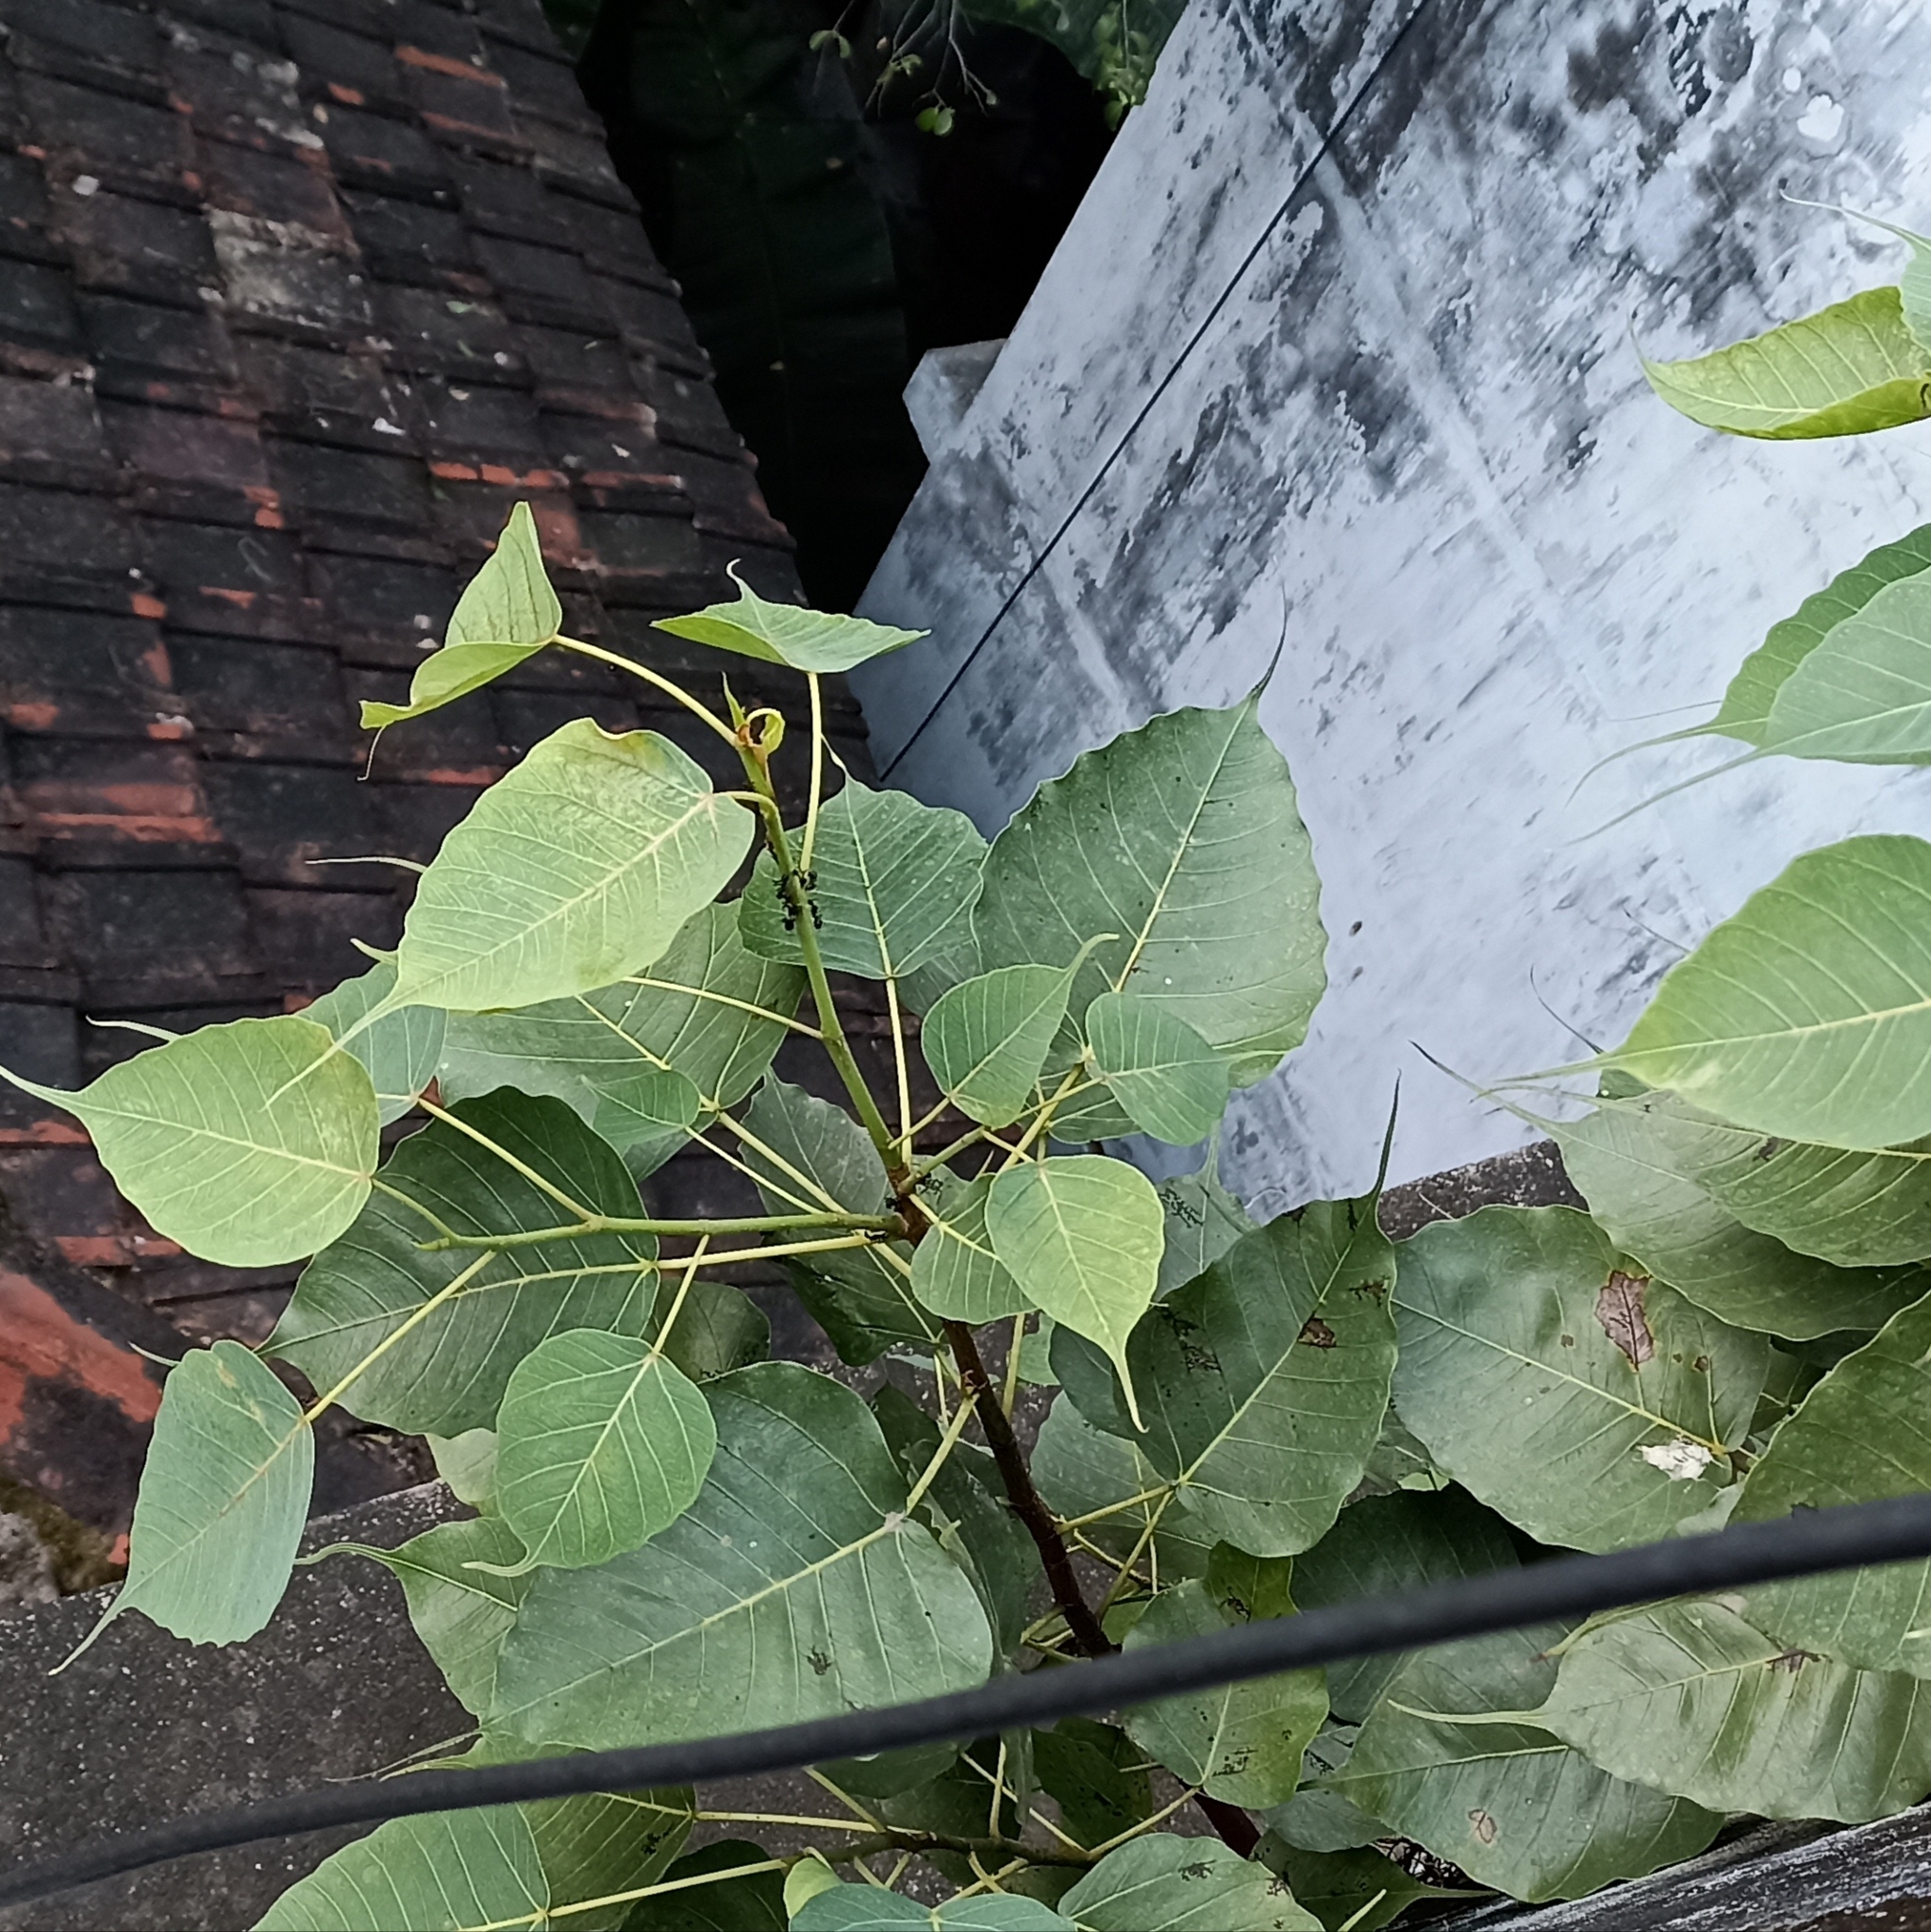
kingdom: Plantae
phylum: Tracheophyta
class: Magnoliopsida
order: Rosales
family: Moraceae
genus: Ficus
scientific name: Ficus religiosa
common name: Bodhi tree
